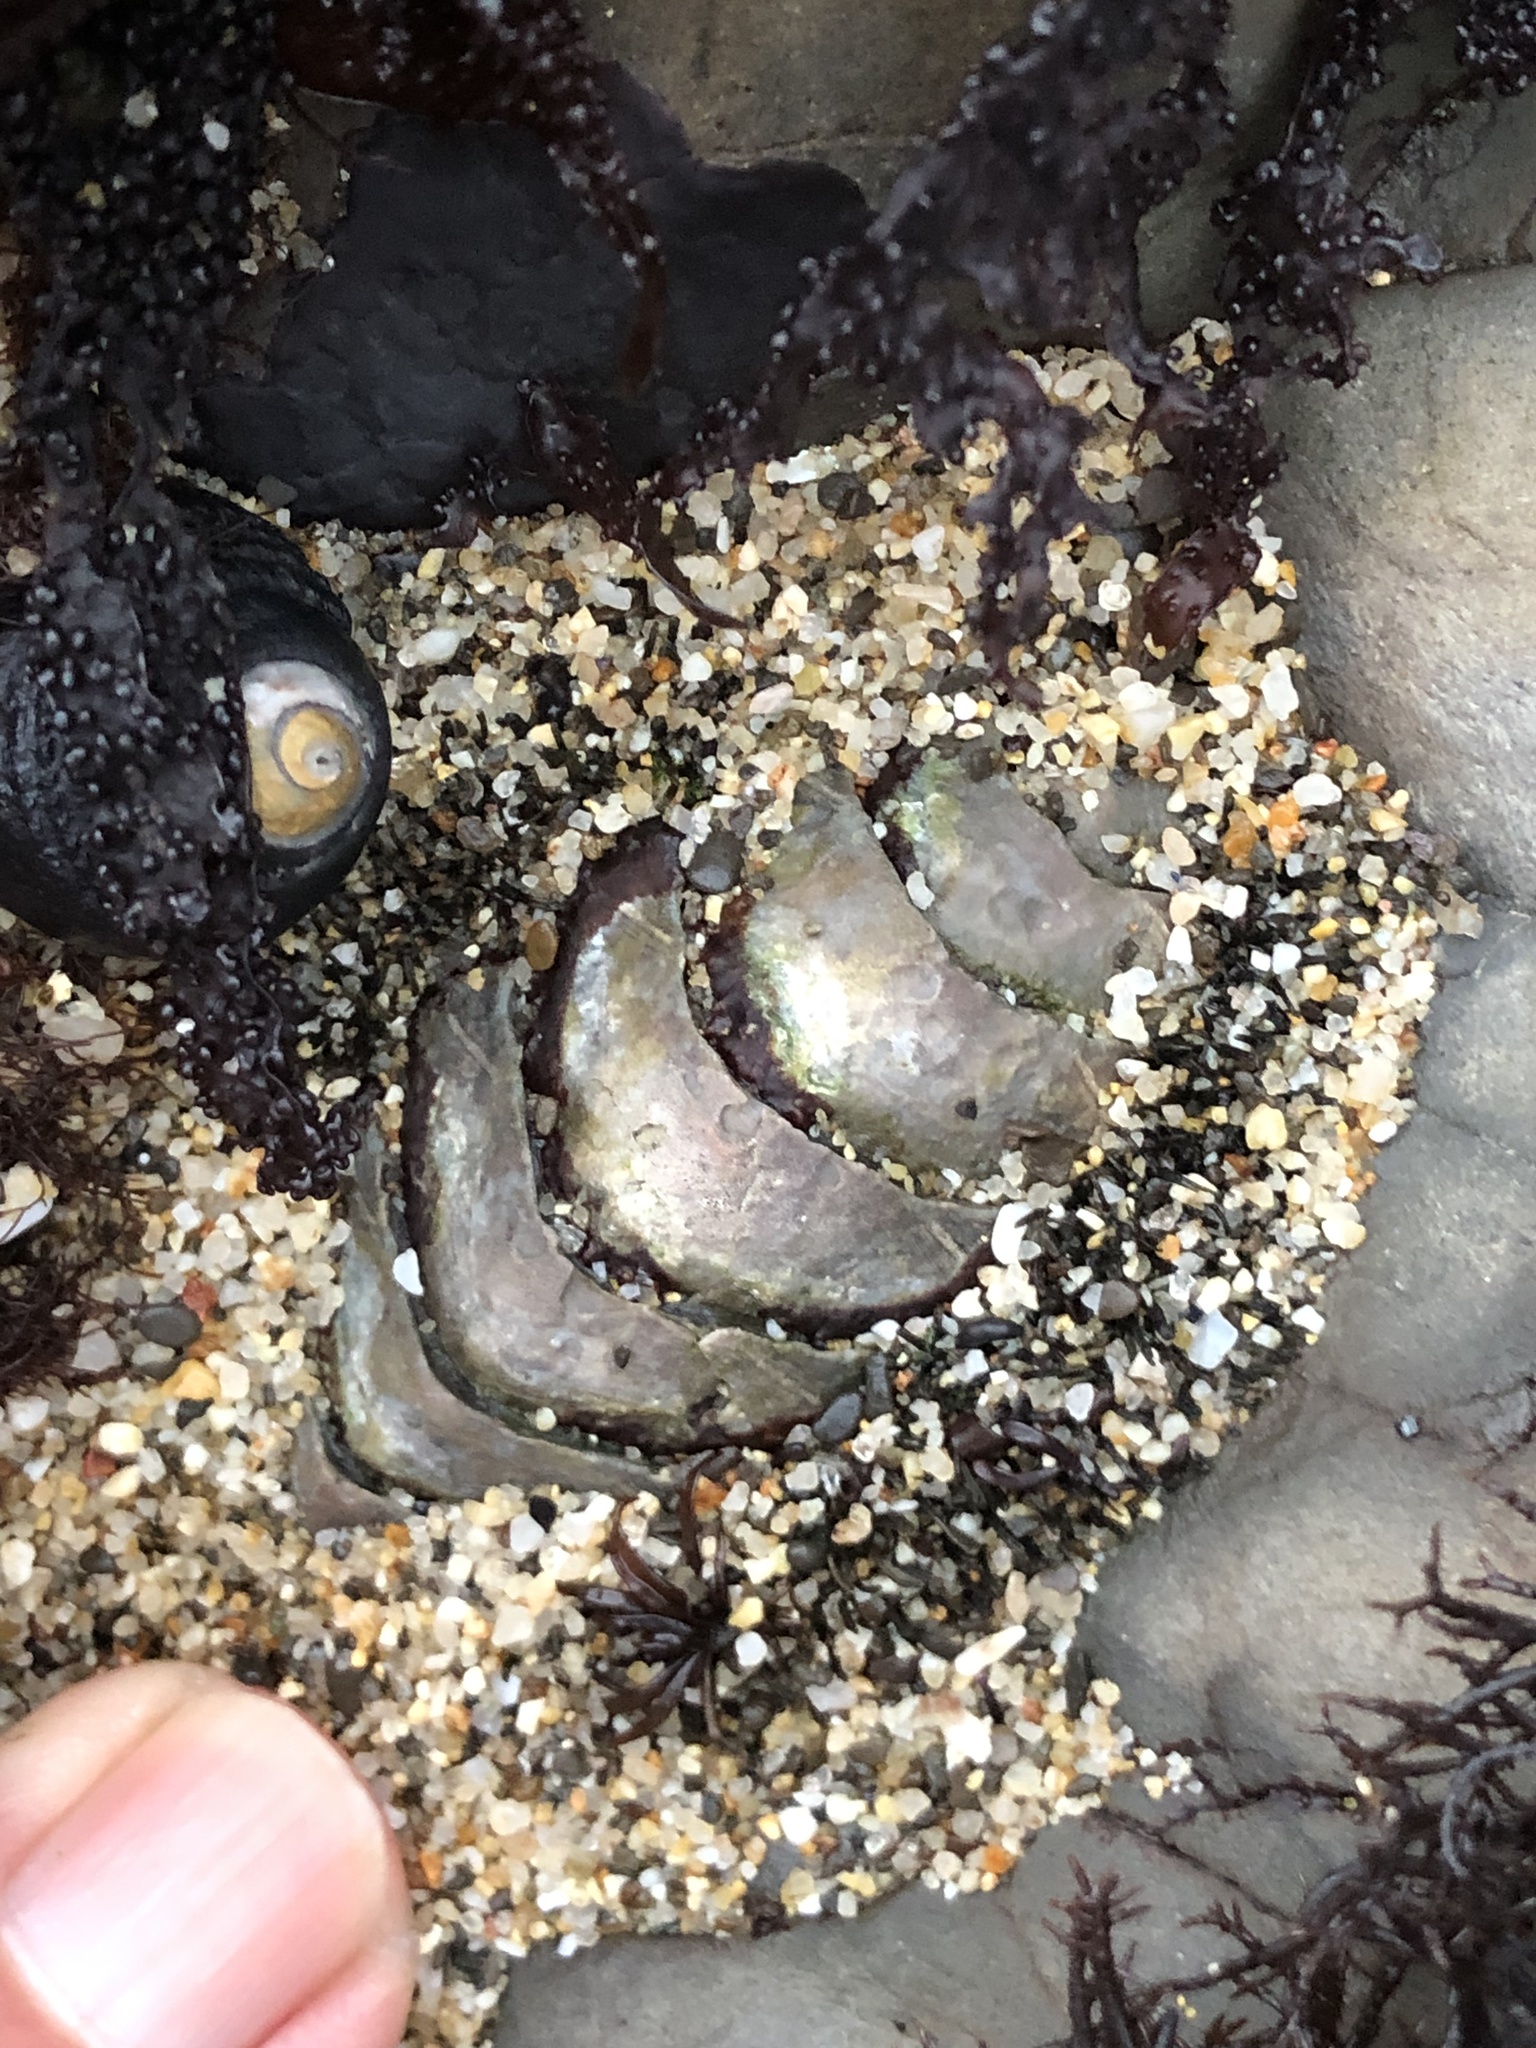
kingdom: Animalia
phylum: Mollusca
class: Polyplacophora
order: Chitonida
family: Mopaliidae
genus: Mopalia
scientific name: Mopalia muscosa
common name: Mossy chiton
